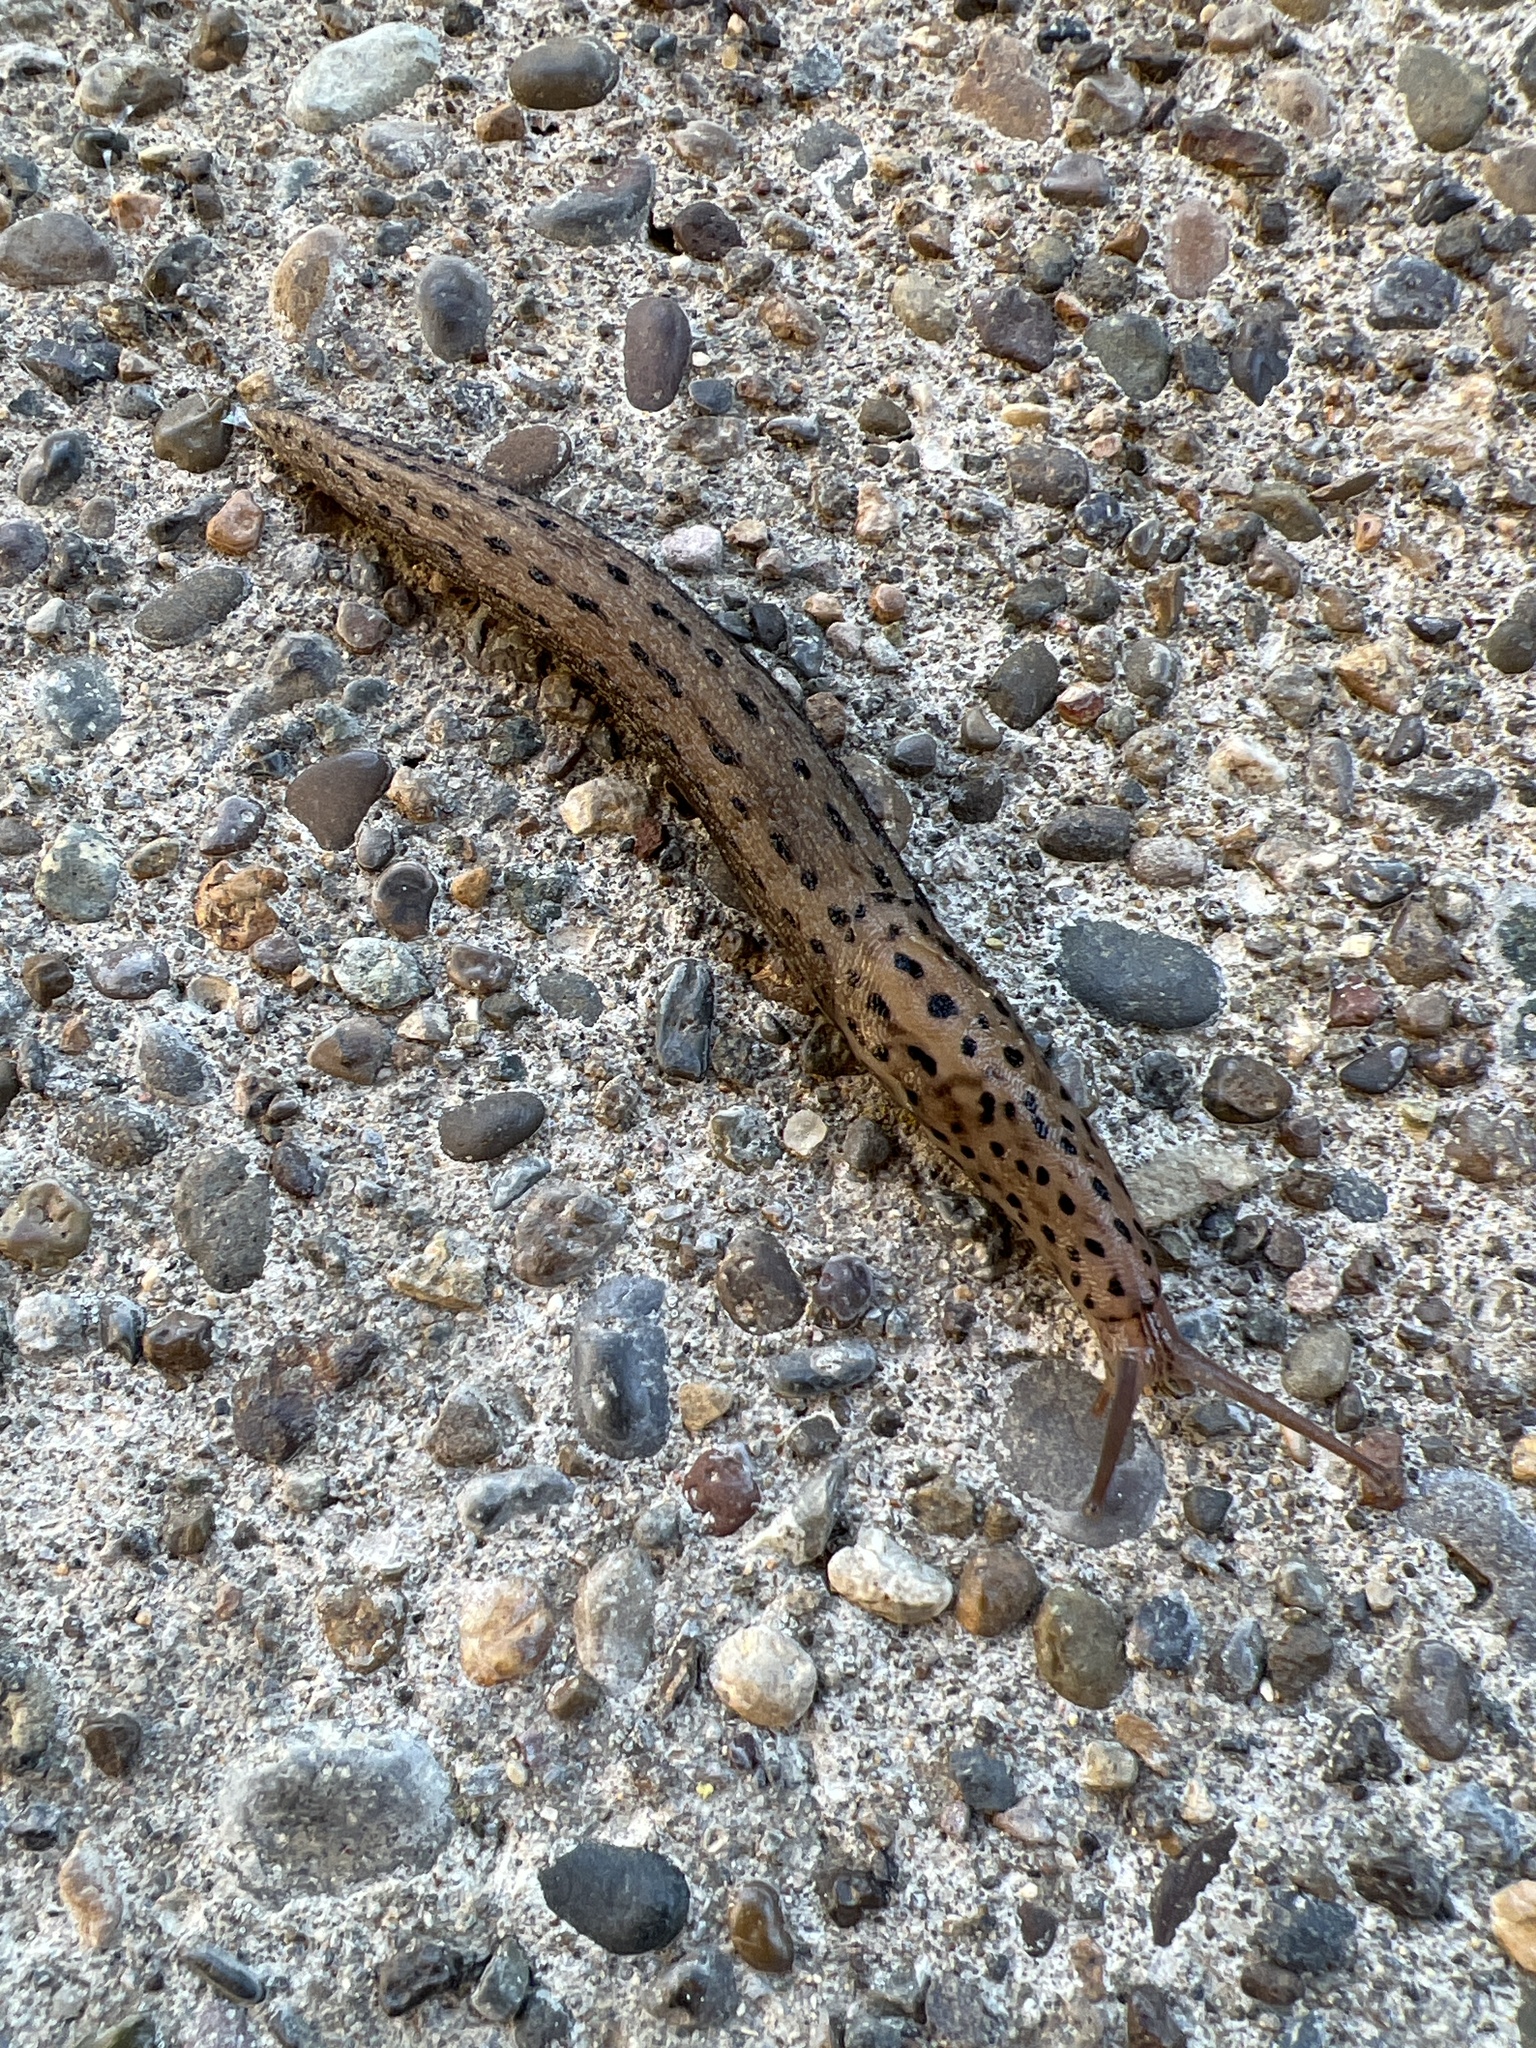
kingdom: Animalia
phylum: Mollusca
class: Gastropoda
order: Stylommatophora
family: Limacidae
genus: Limax
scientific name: Limax maximus
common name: Great grey slug
